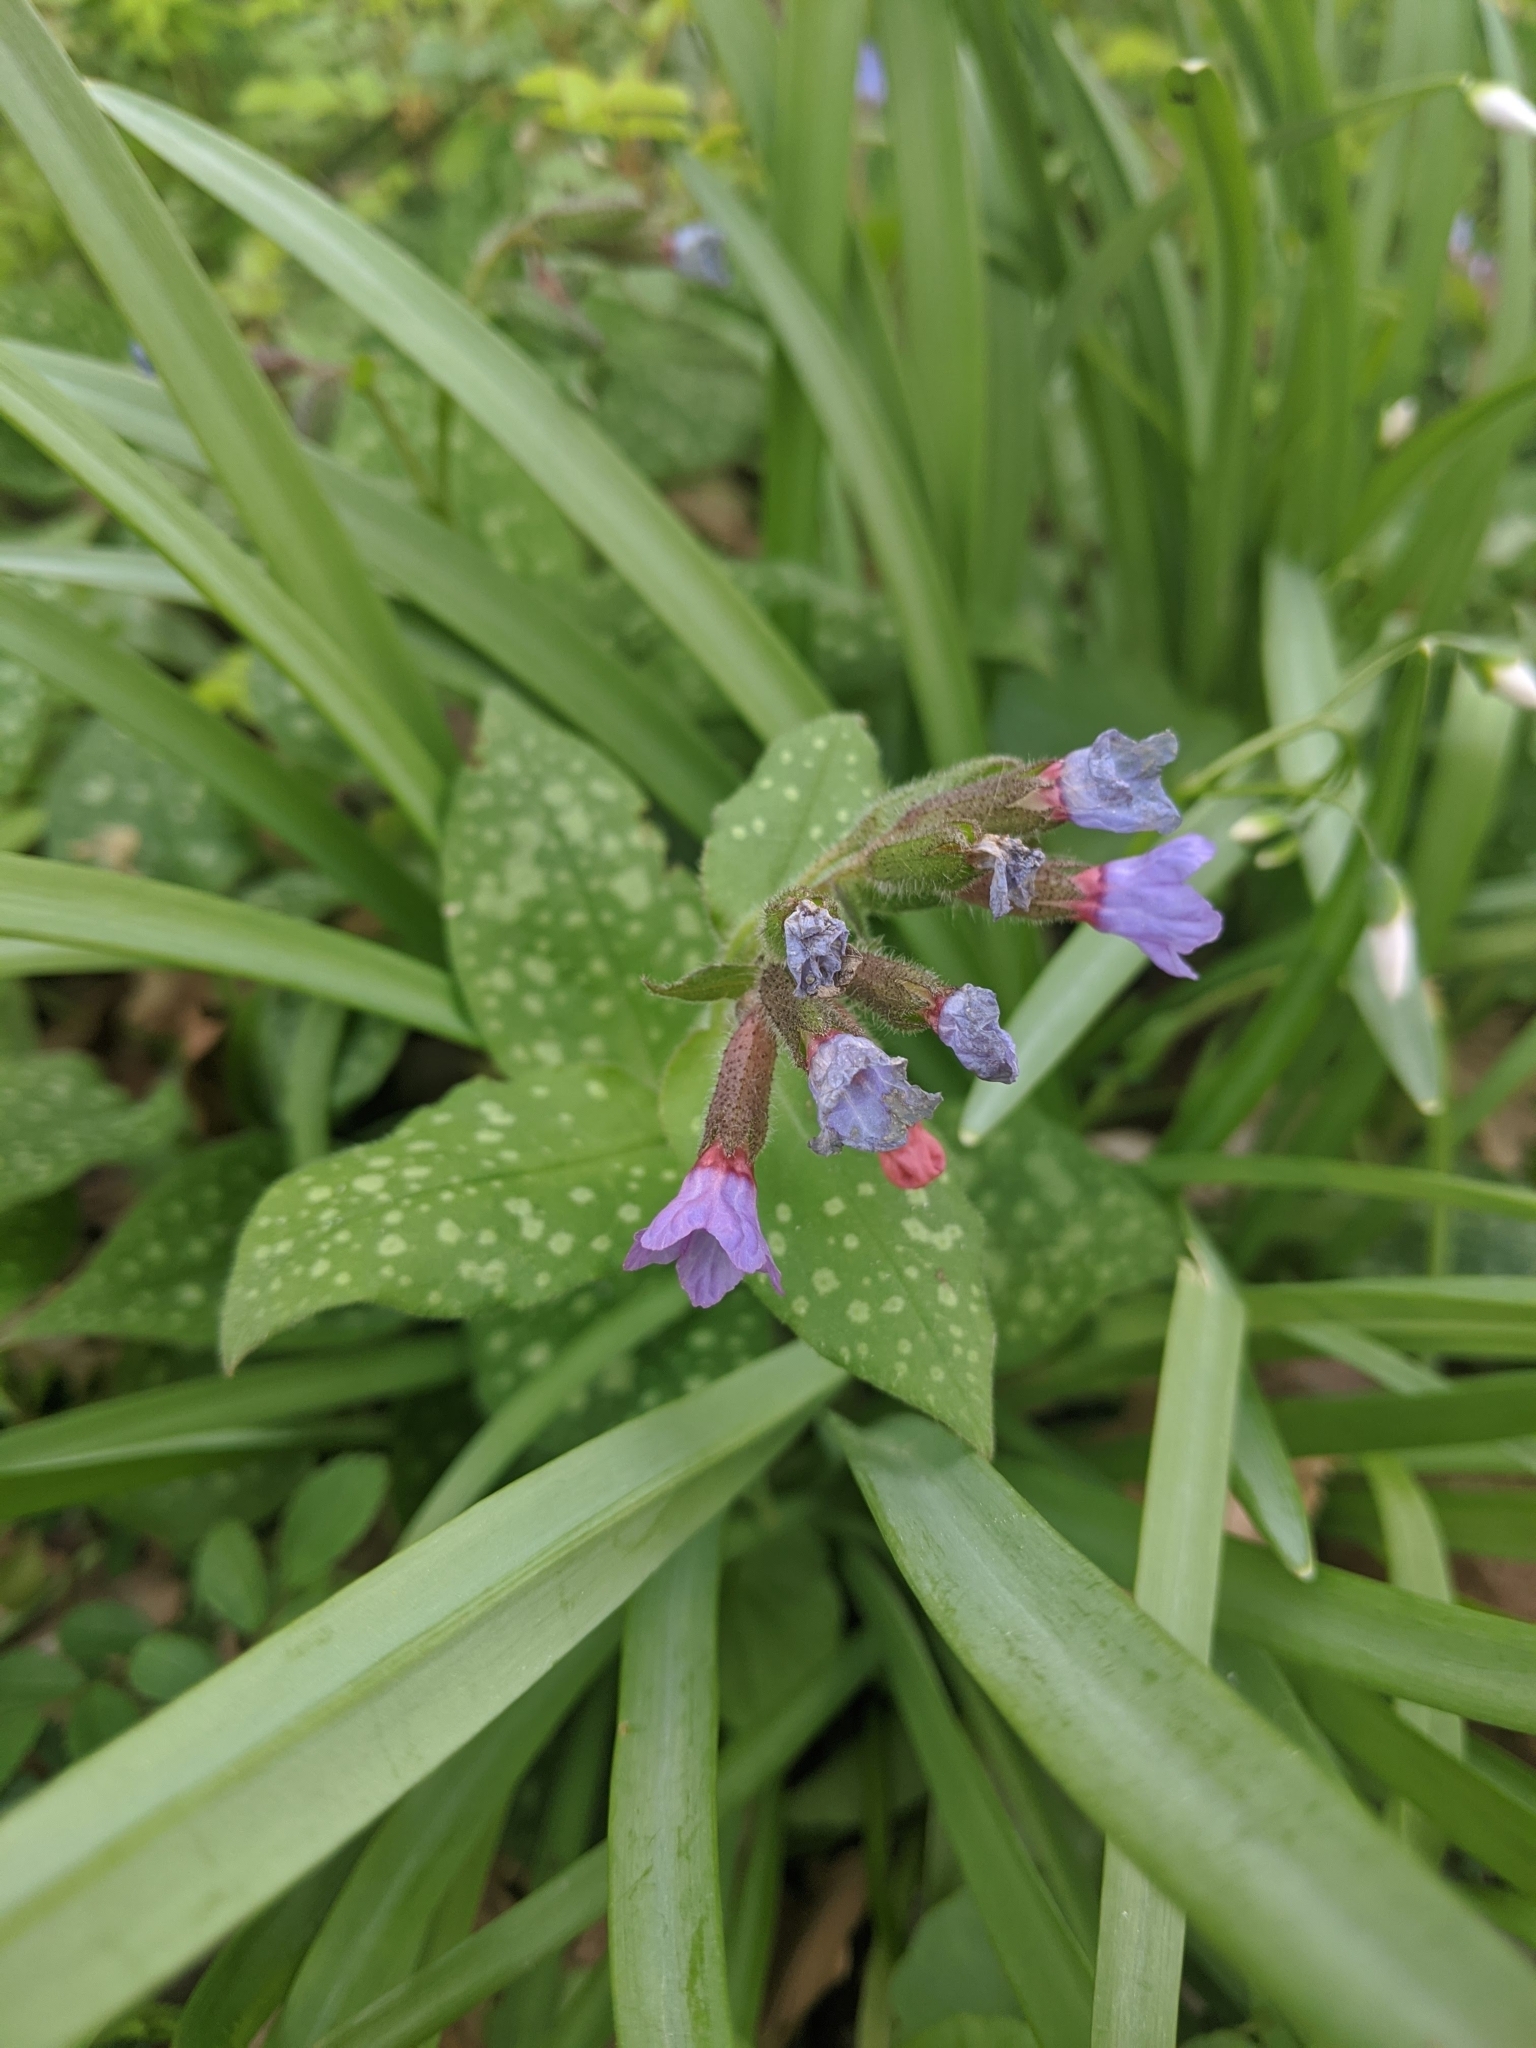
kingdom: Plantae
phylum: Tracheophyta
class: Magnoliopsida
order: Boraginales
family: Boraginaceae
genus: Pulmonaria
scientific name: Pulmonaria saccharata
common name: Bethlehem lungwort
